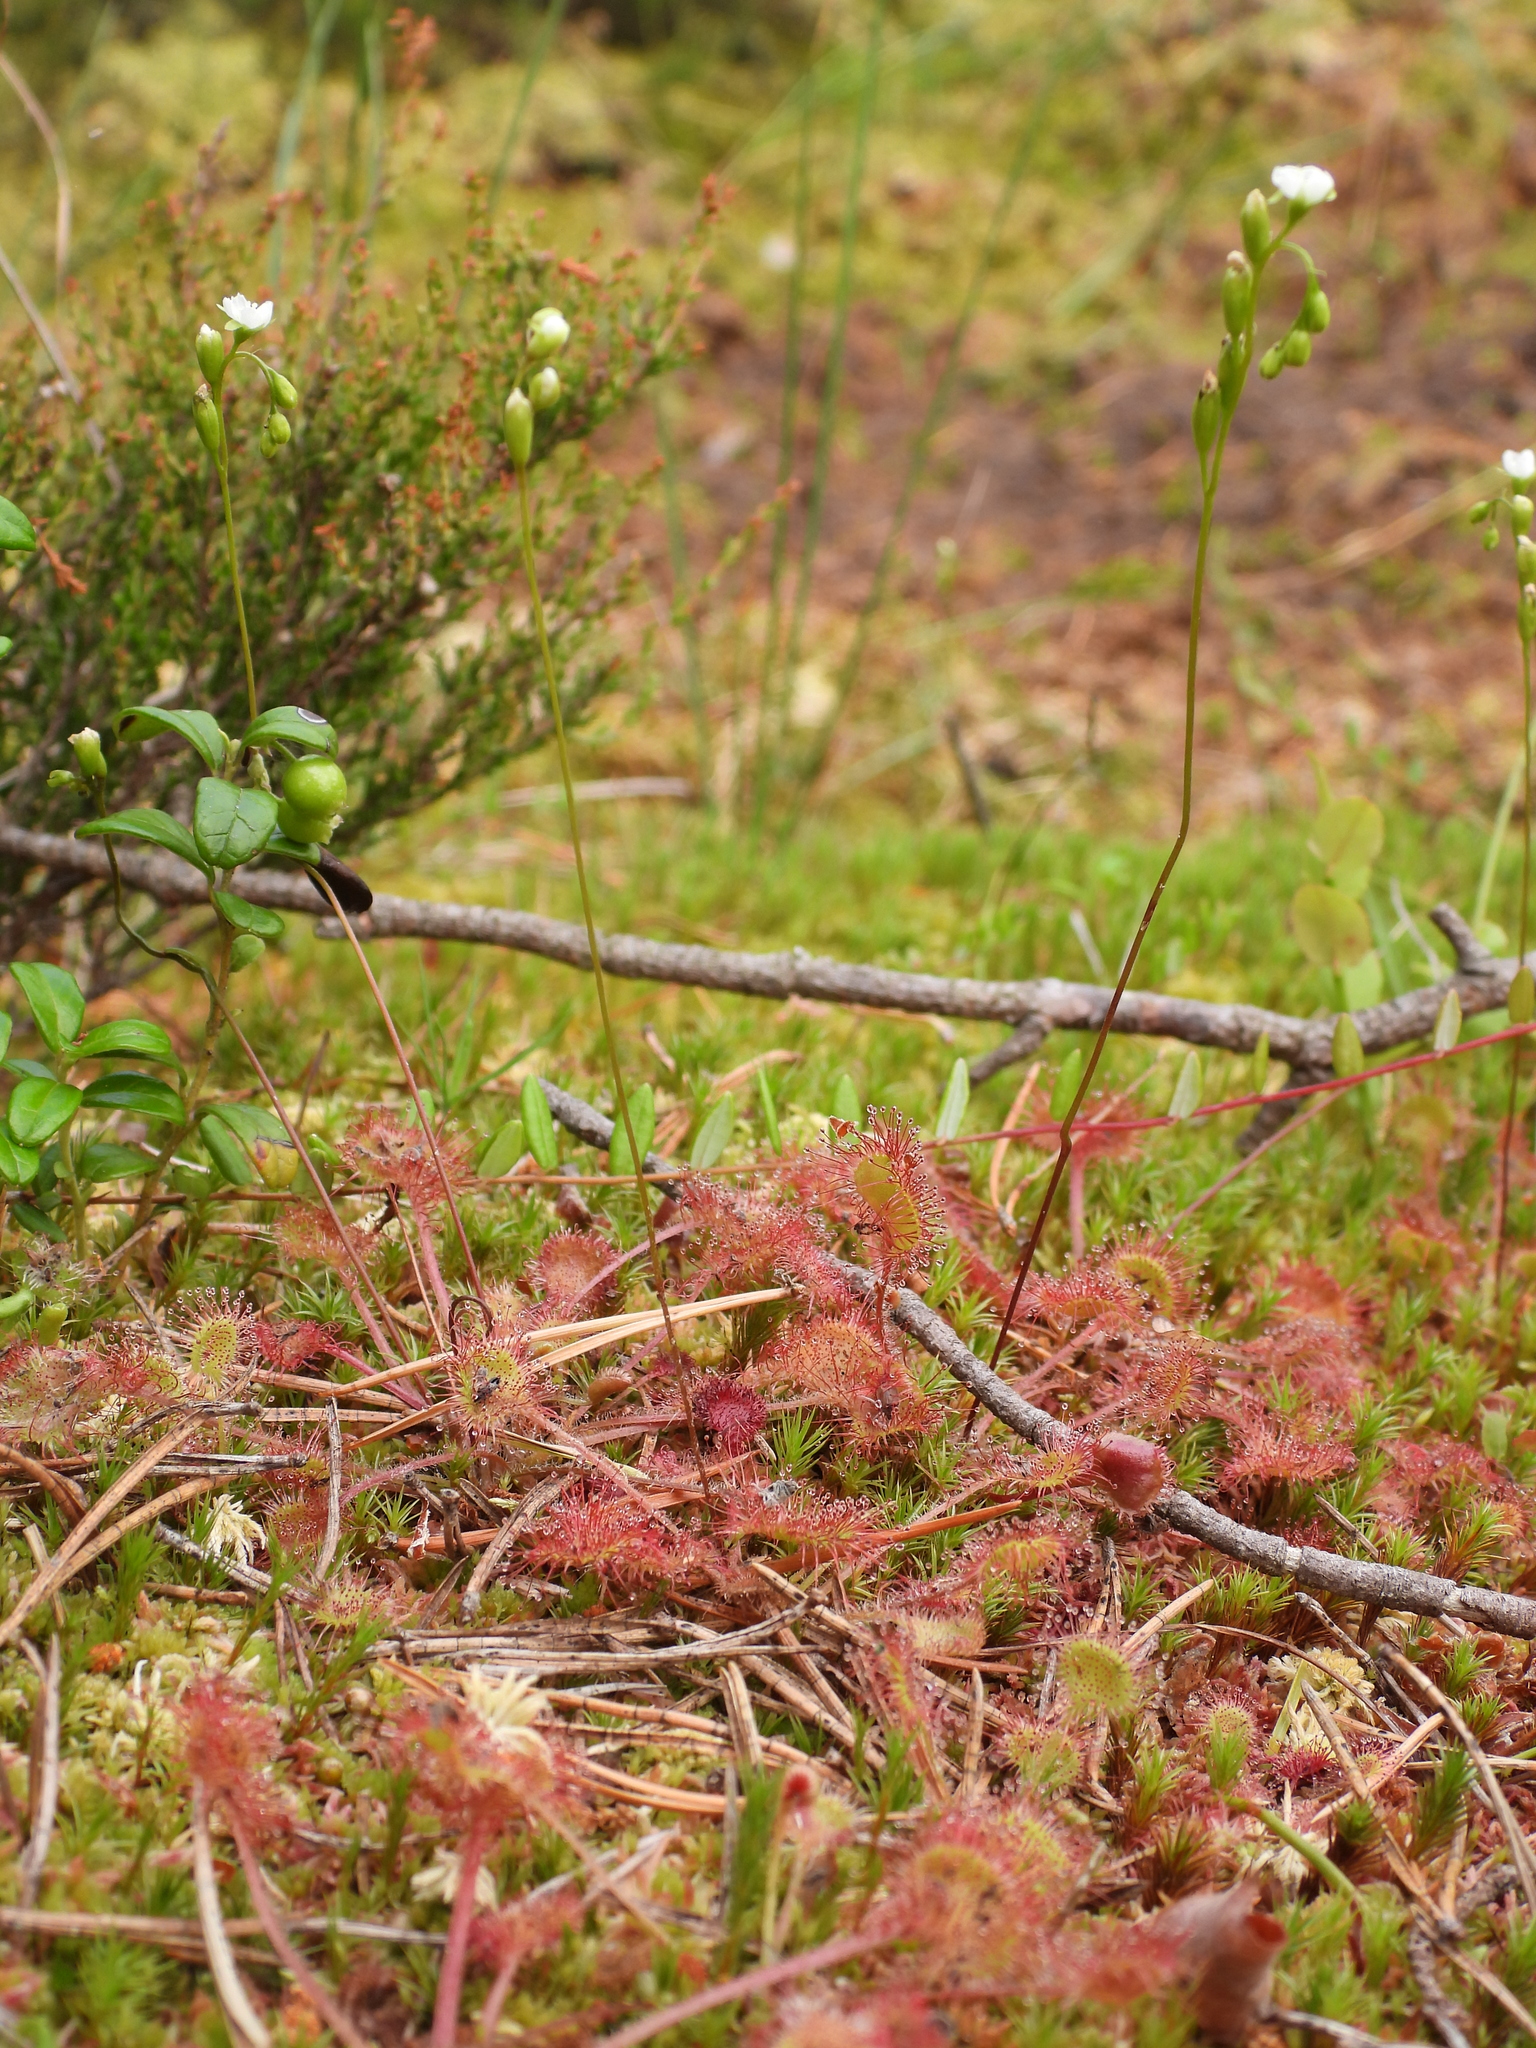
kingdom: Plantae
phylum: Tracheophyta
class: Magnoliopsida
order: Caryophyllales
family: Droseraceae
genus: Drosera
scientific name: Drosera rotundifolia
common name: Round-leaved sundew
